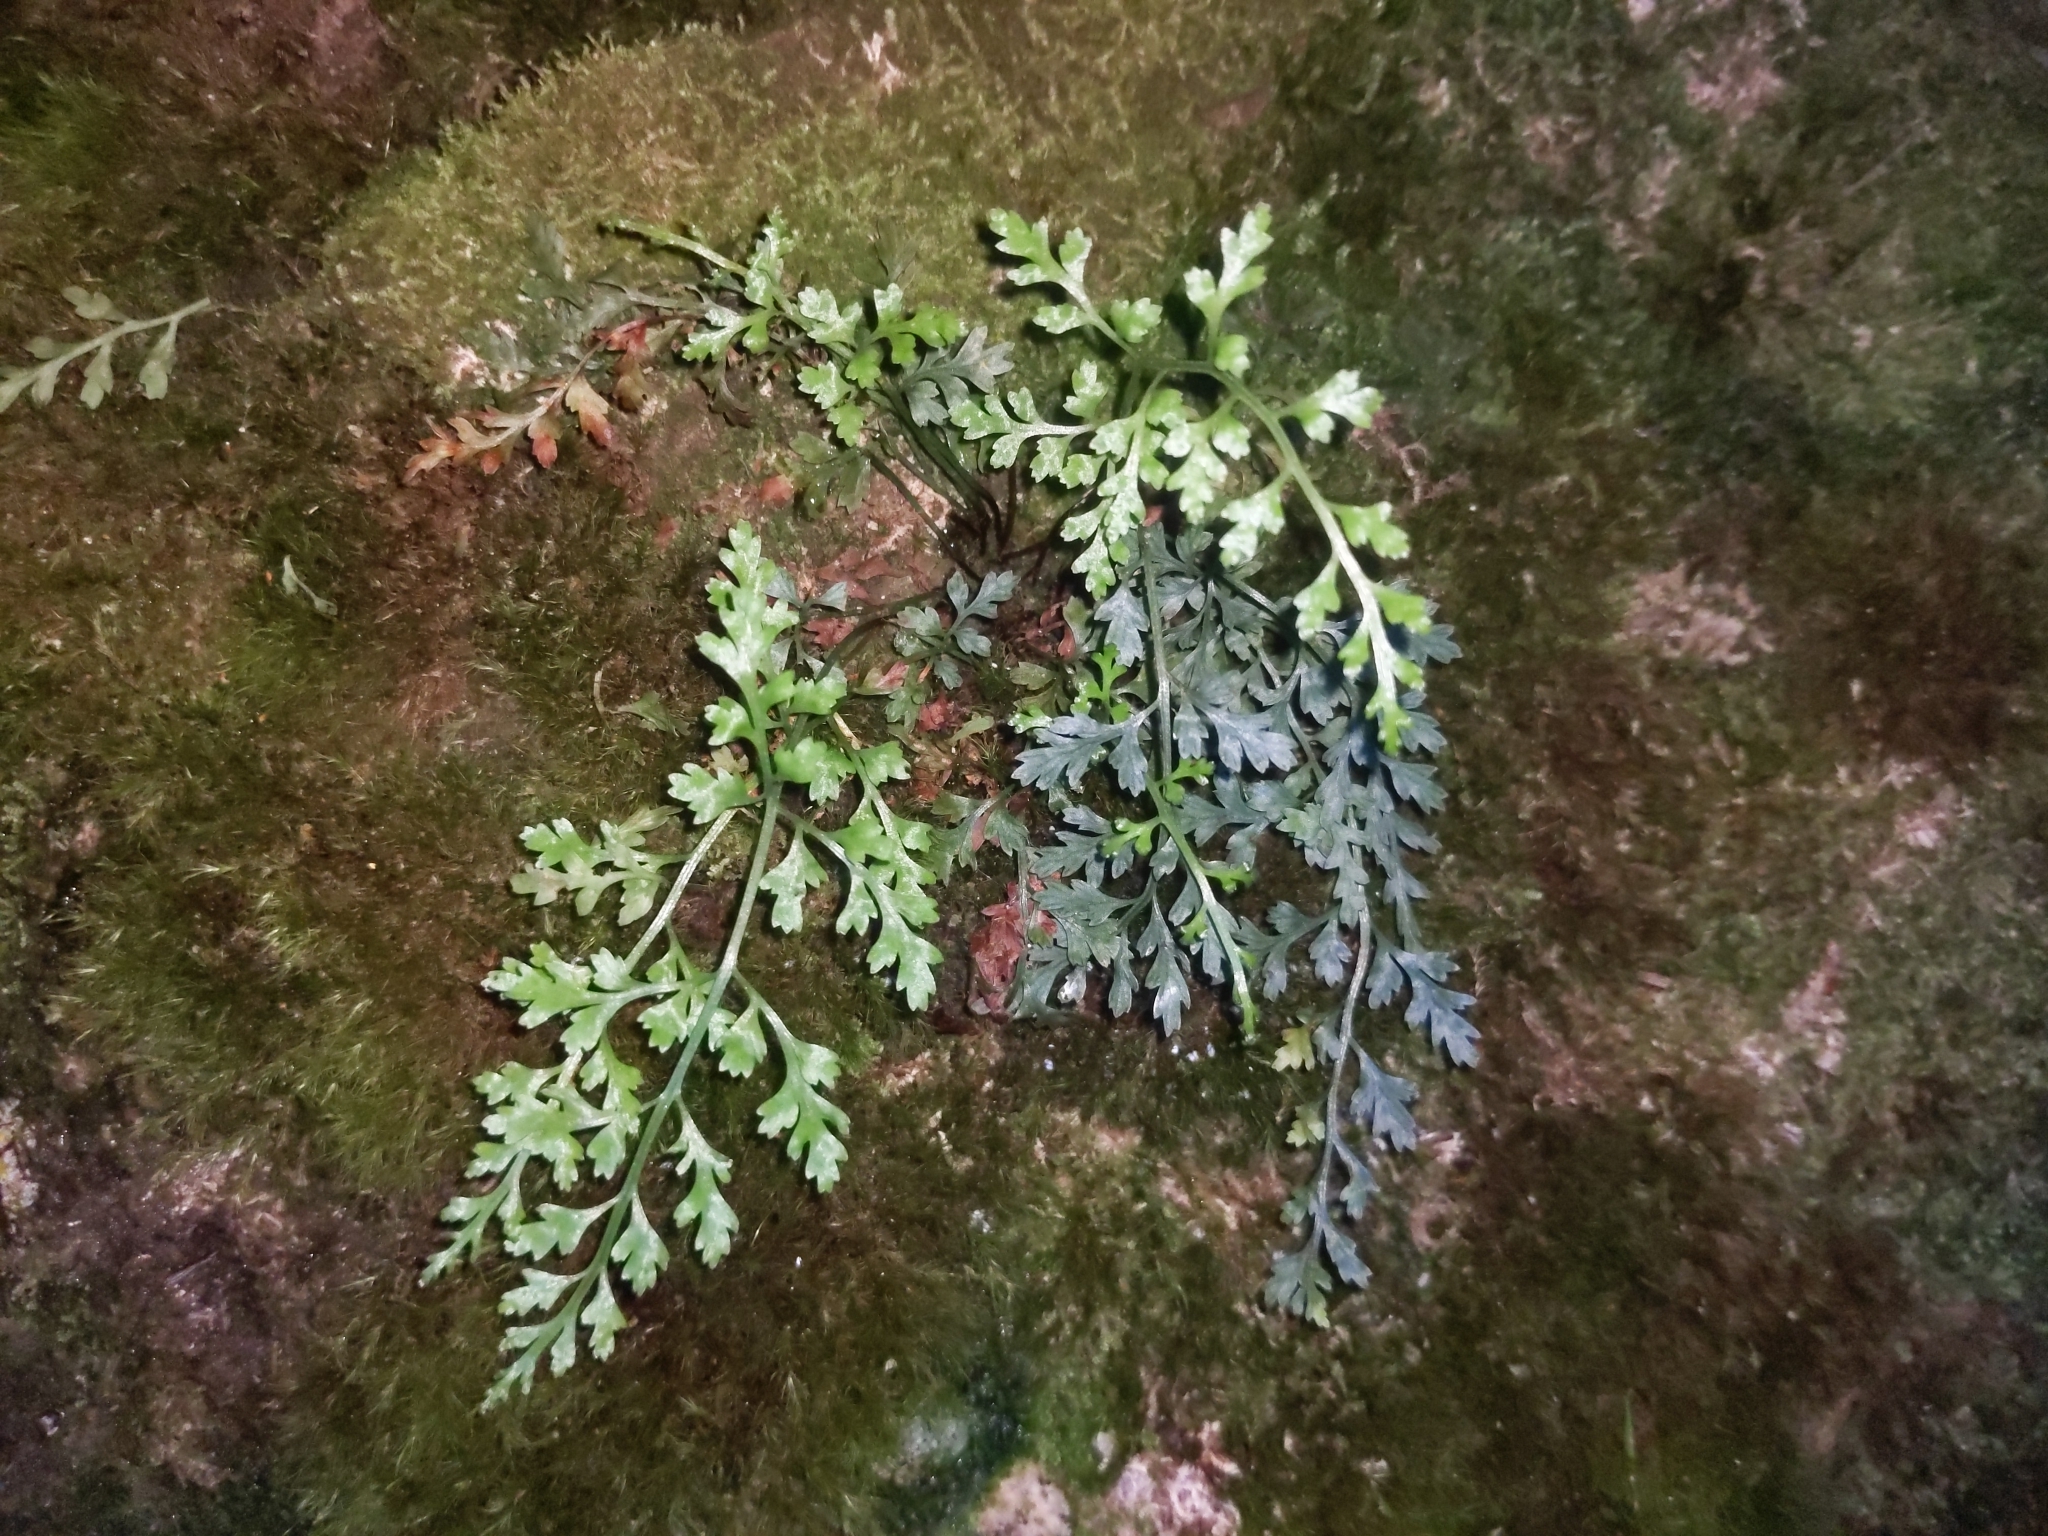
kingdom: Plantae
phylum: Tracheophyta
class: Polypodiopsida
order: Polypodiales
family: Aspleniaceae
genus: Asplenium
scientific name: Asplenium montanum
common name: Mountain spleenwort
